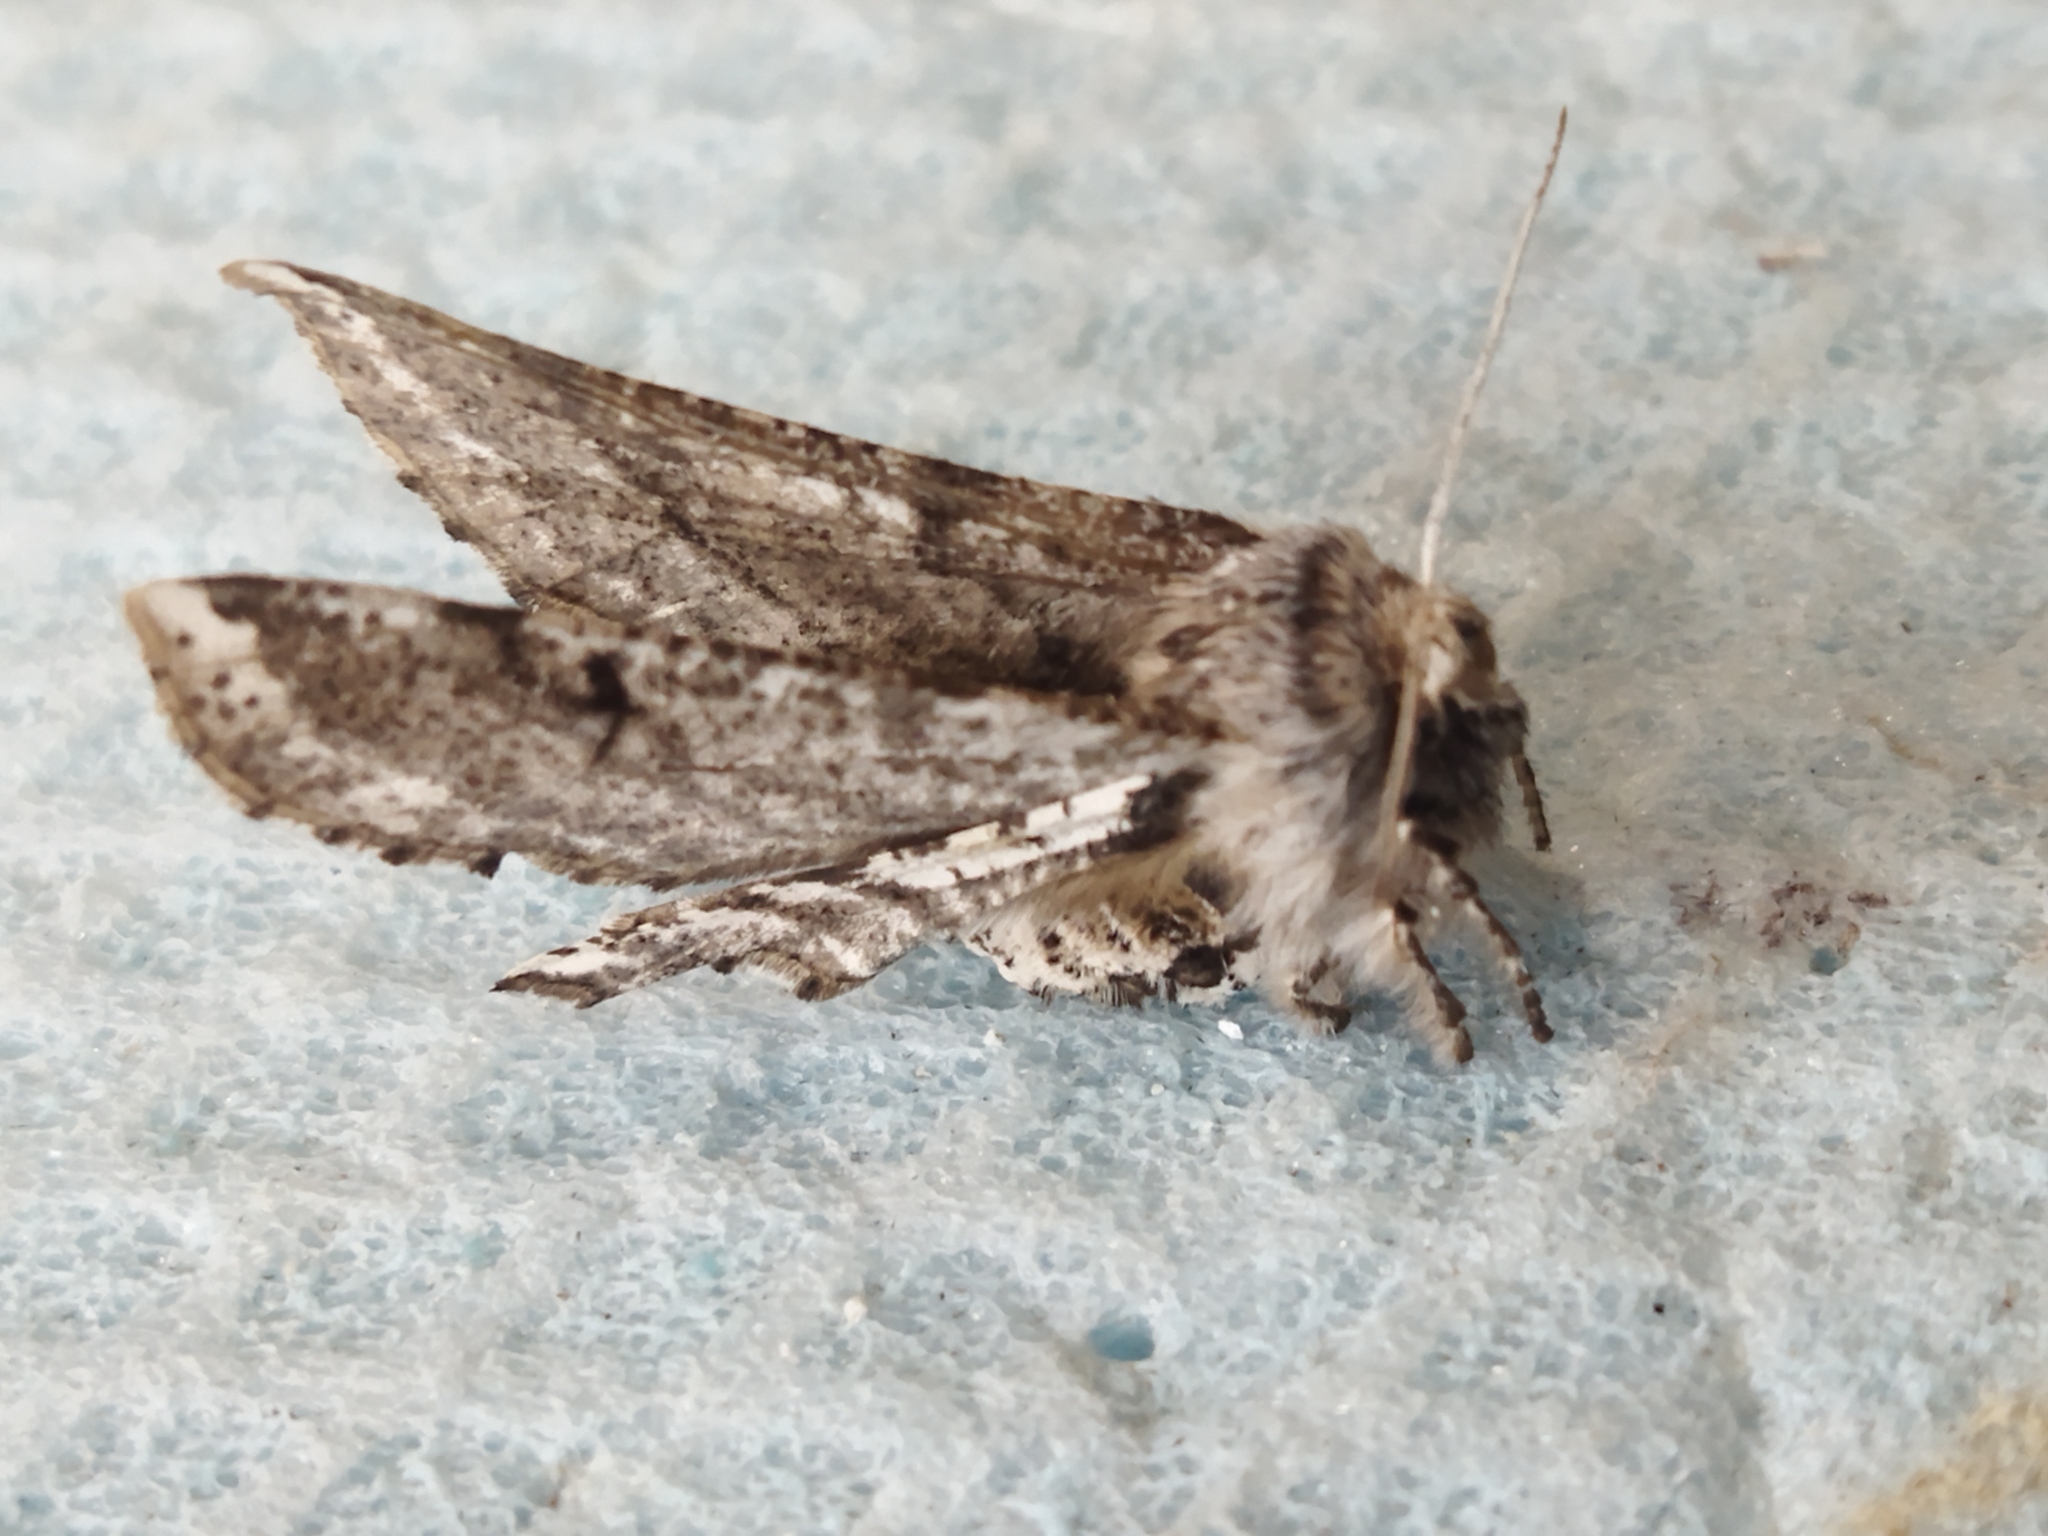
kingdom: Animalia
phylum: Arthropoda
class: Insecta
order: Lepidoptera
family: Geometridae
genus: Apochima
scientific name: Apochima flabellaria
